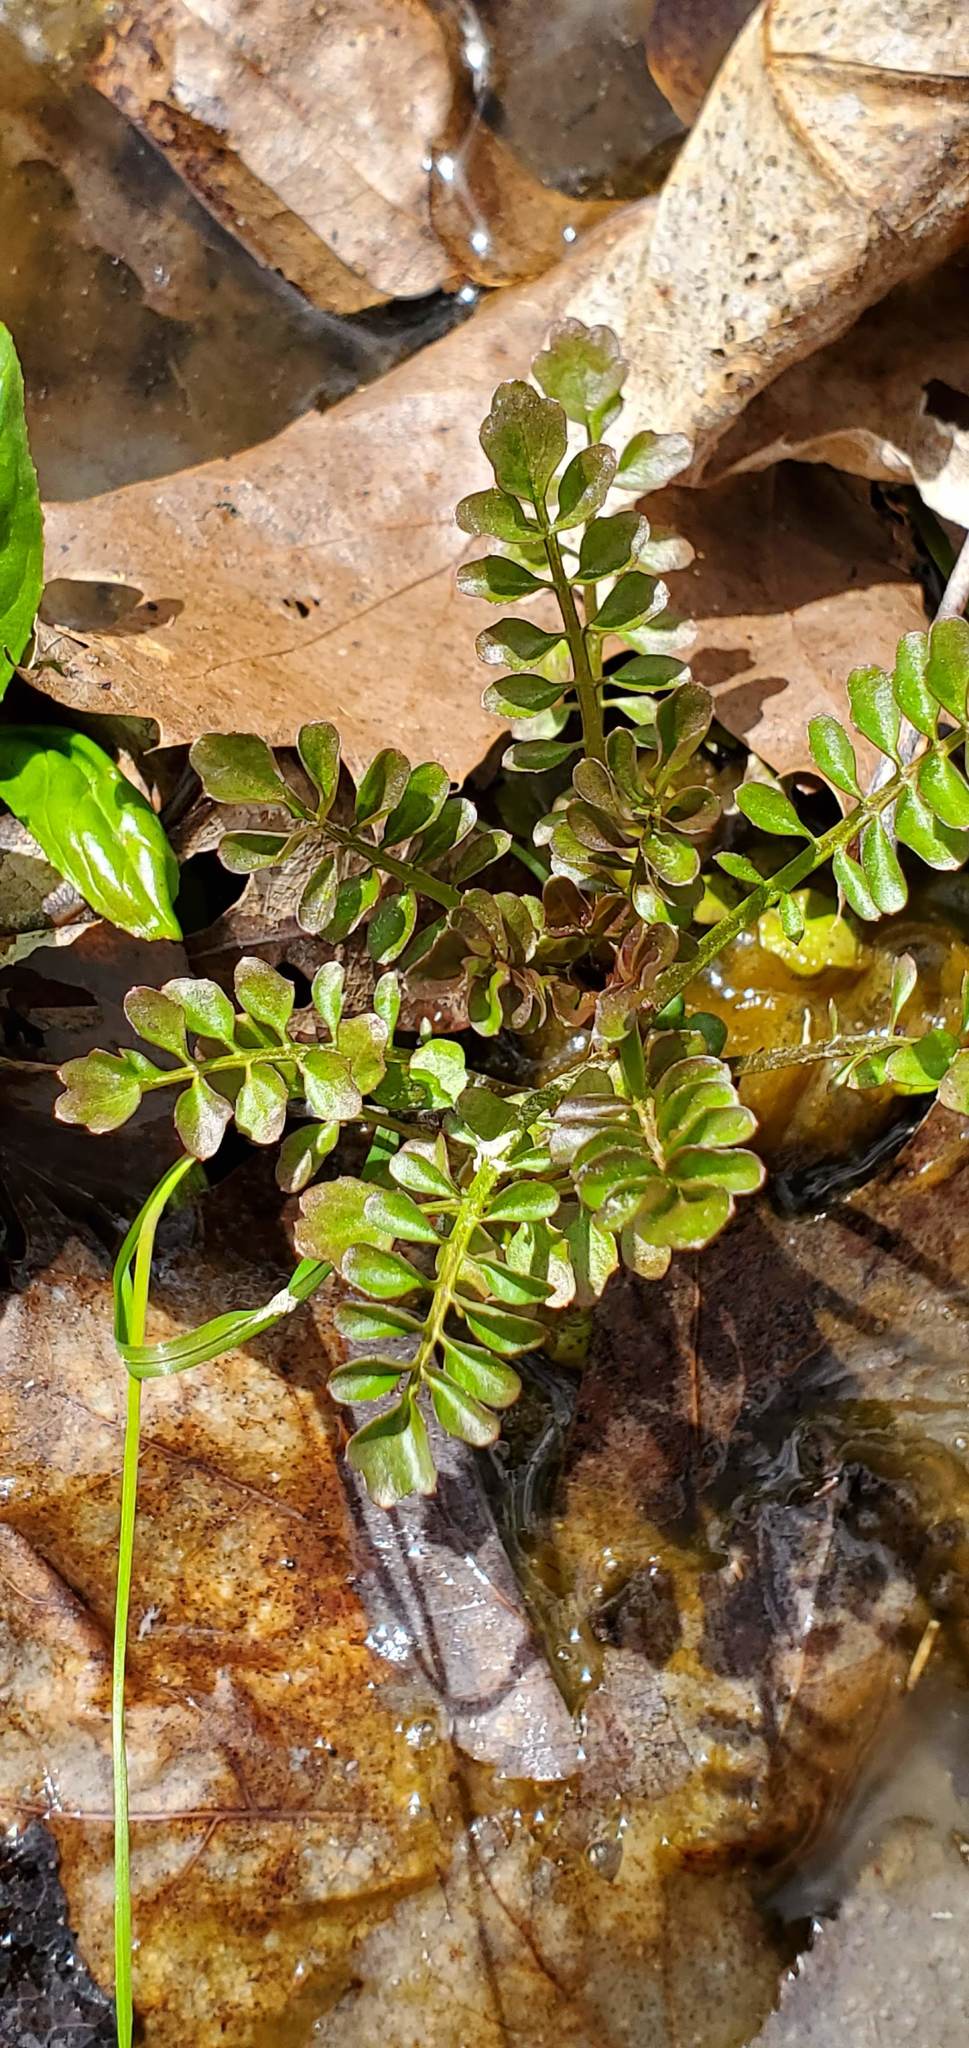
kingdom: Plantae
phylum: Tracheophyta
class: Magnoliopsida
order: Brassicales
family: Brassicaceae
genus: Cardamine
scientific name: Cardamine pensylvanica
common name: Pennsylvania bittercress
